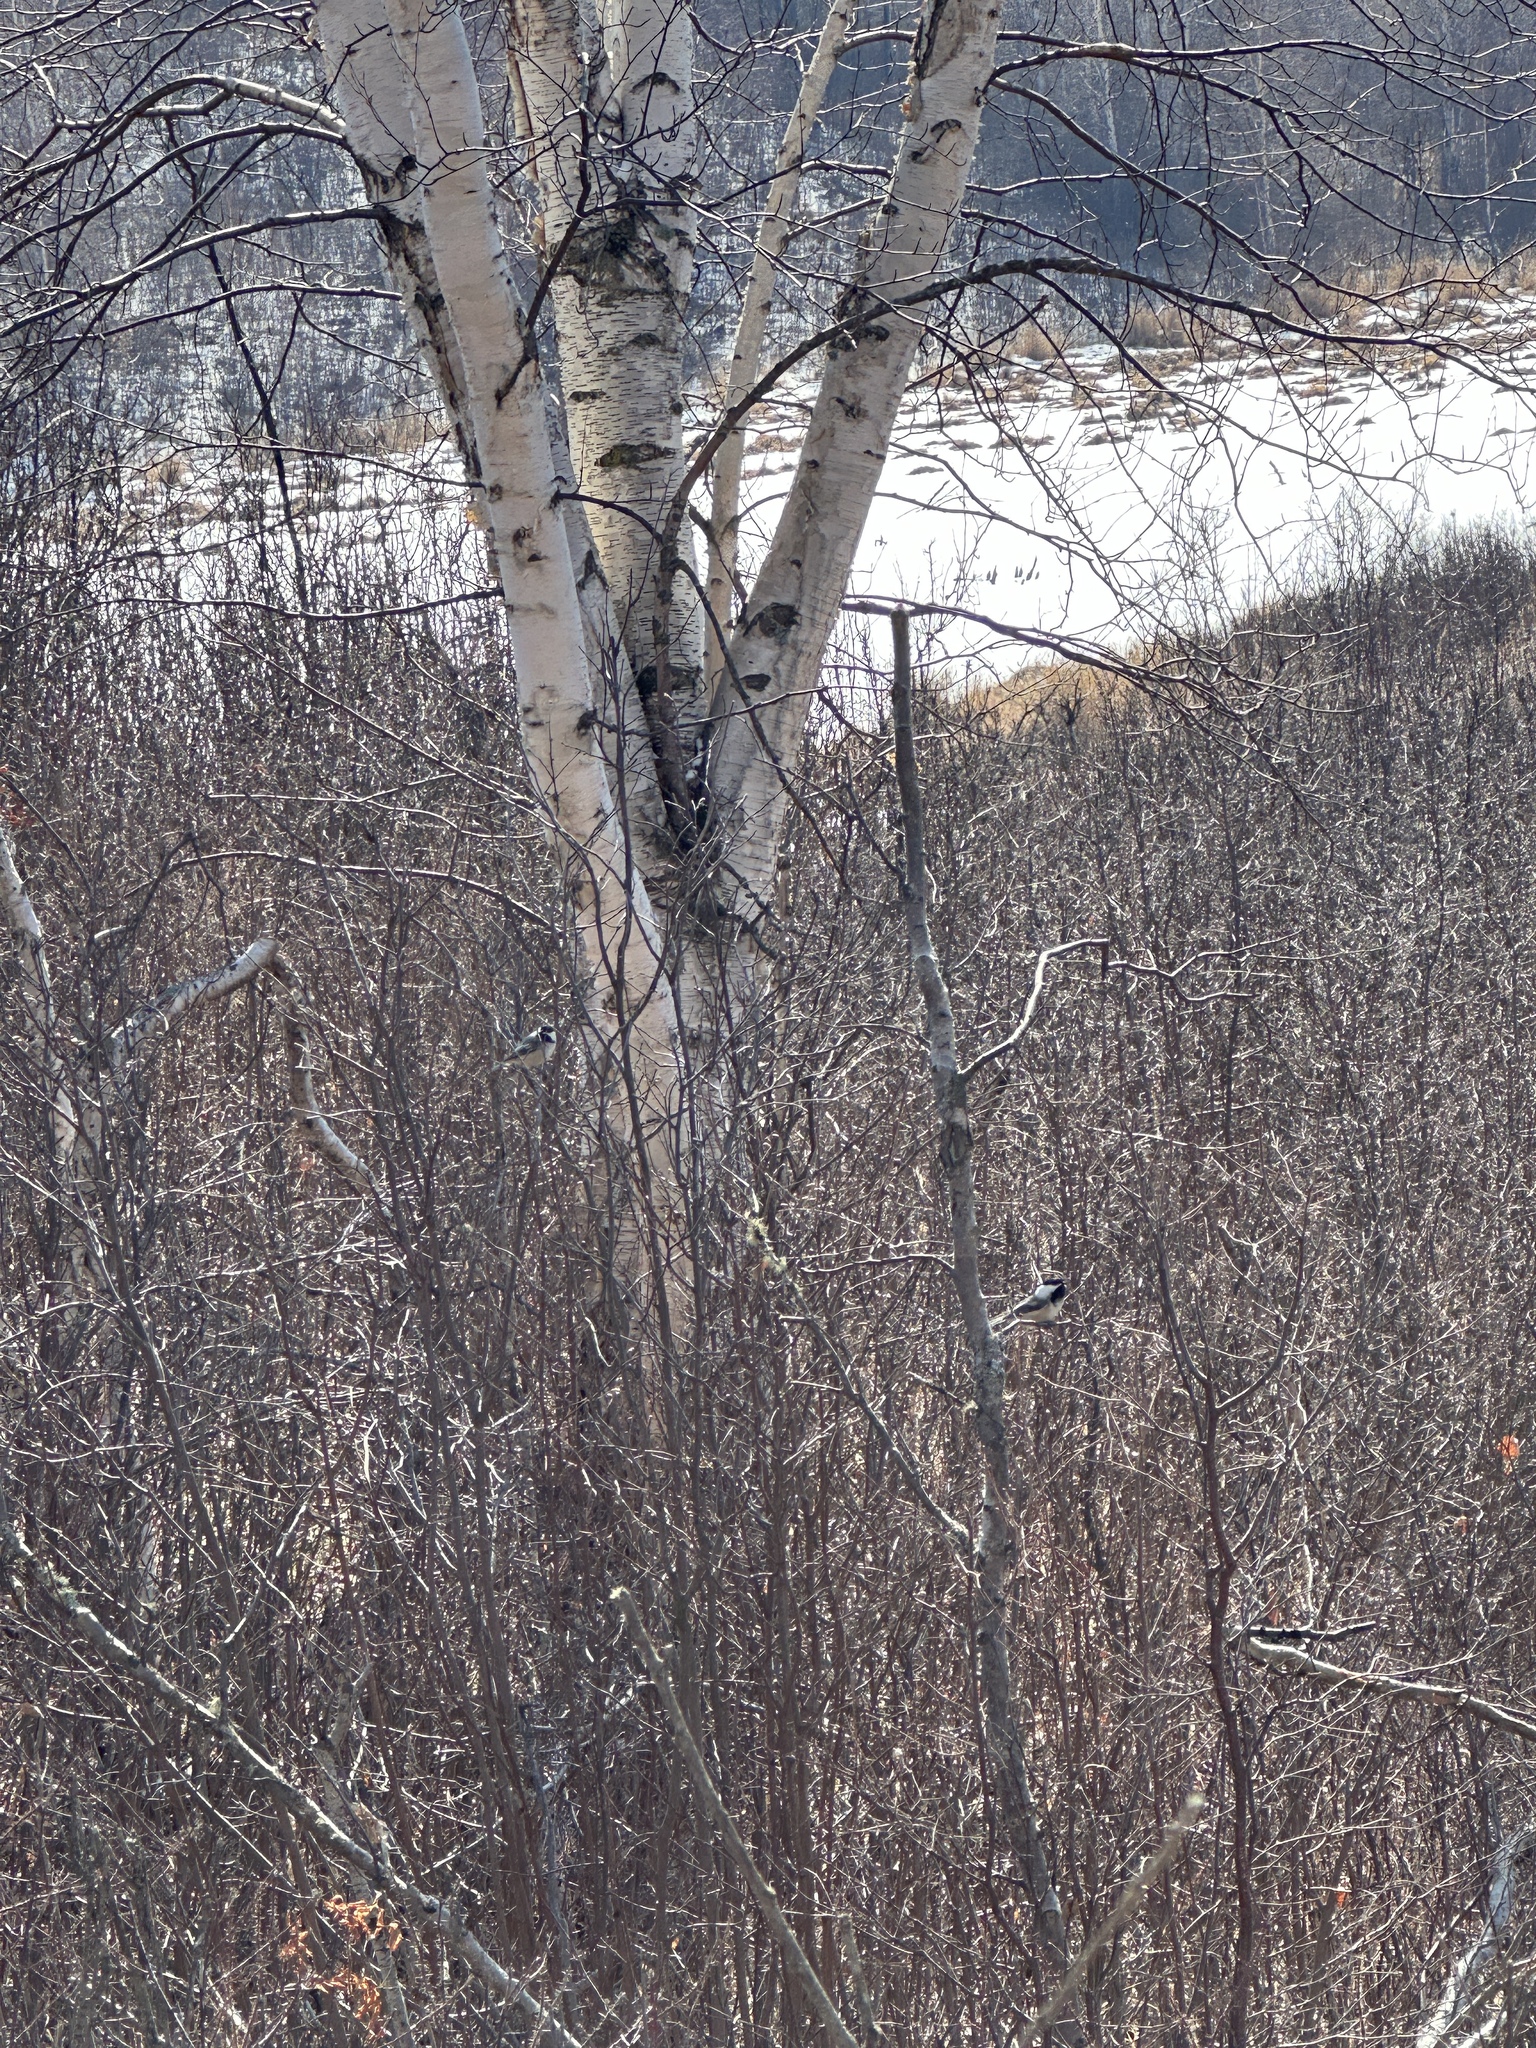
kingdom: Animalia
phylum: Chordata
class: Aves
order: Passeriformes
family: Paridae
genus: Poecile
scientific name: Poecile atricapillus
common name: Black-capped chickadee
